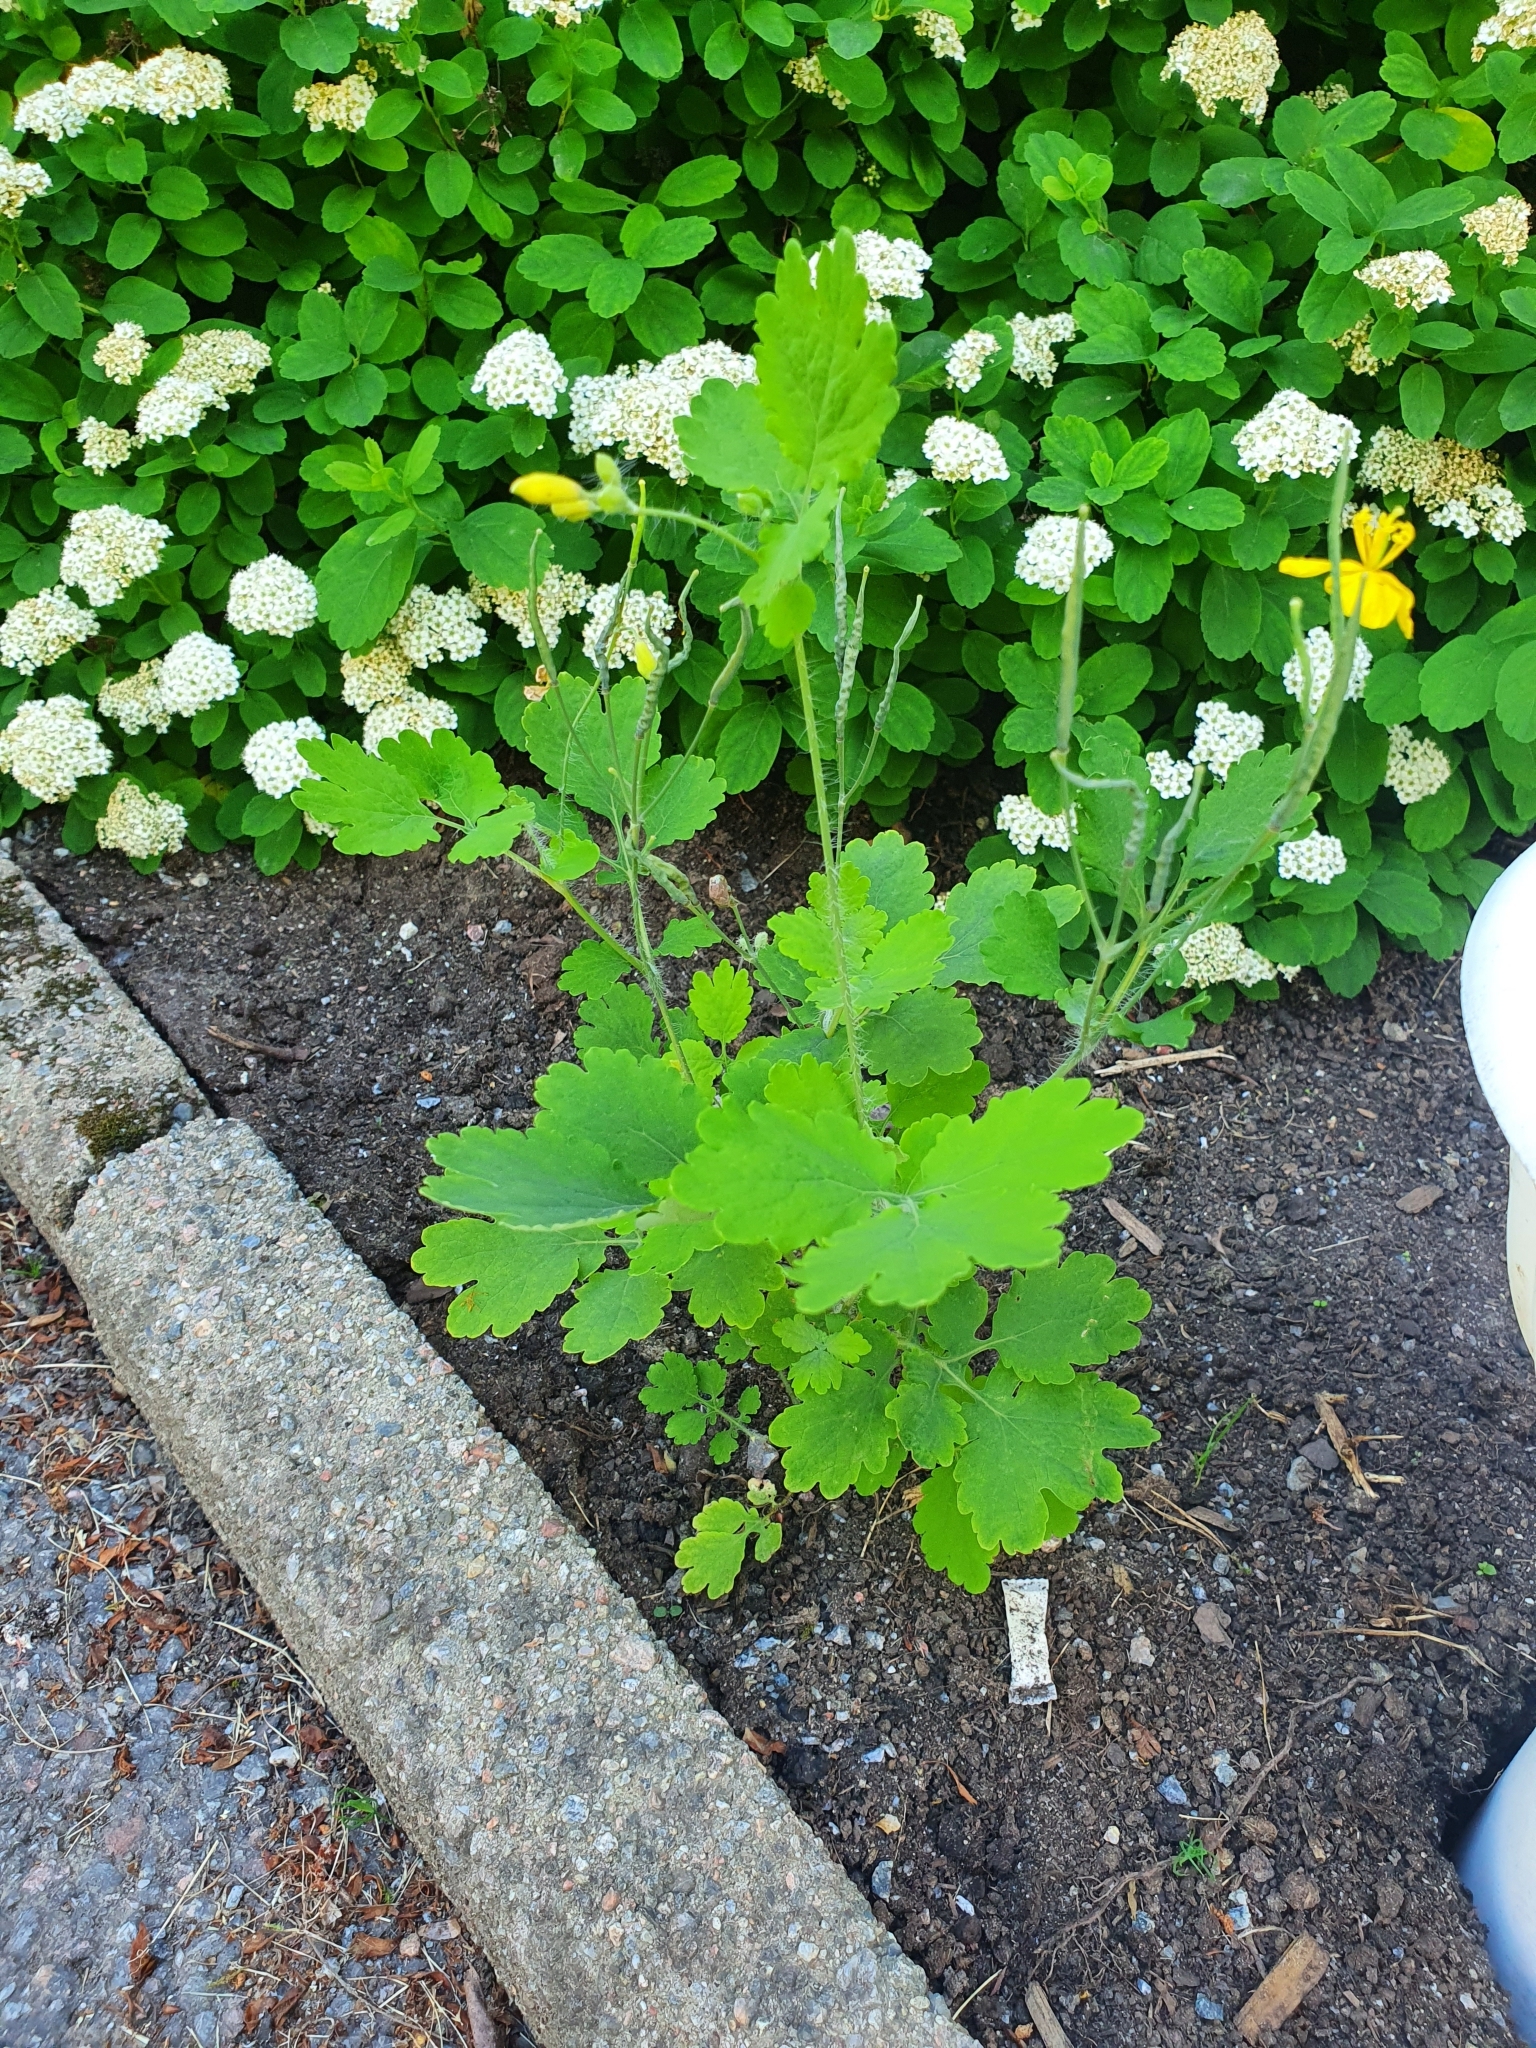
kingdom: Plantae
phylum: Tracheophyta
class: Magnoliopsida
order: Ranunculales
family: Papaveraceae
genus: Chelidonium
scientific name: Chelidonium majus
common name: Greater celandine
